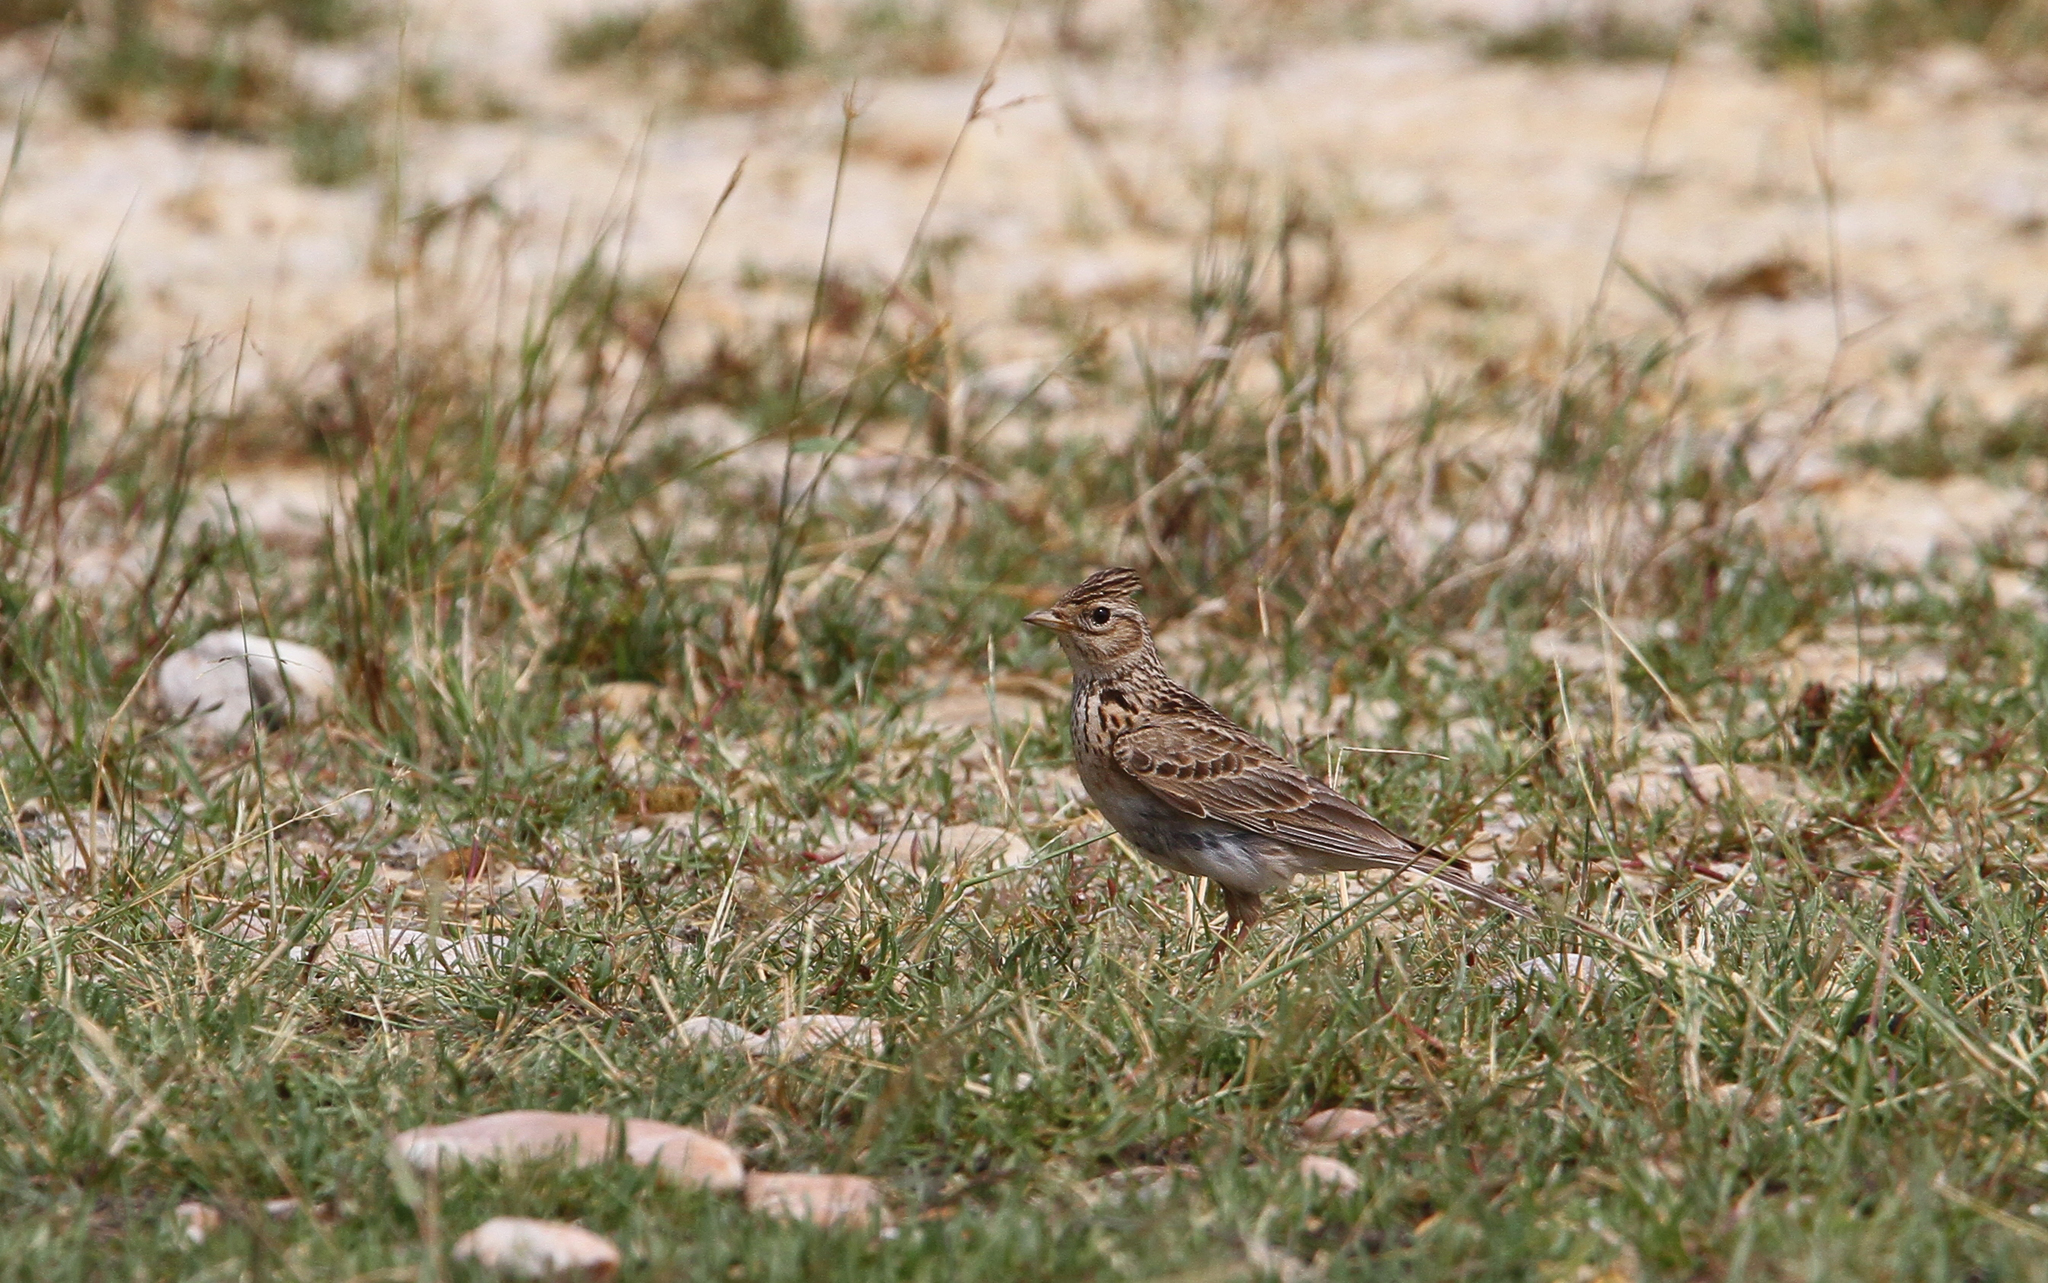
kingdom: Animalia
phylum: Chordata
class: Aves
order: Passeriformes
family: Alaudidae
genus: Alauda
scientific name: Alauda arvensis
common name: Eurasian skylark
